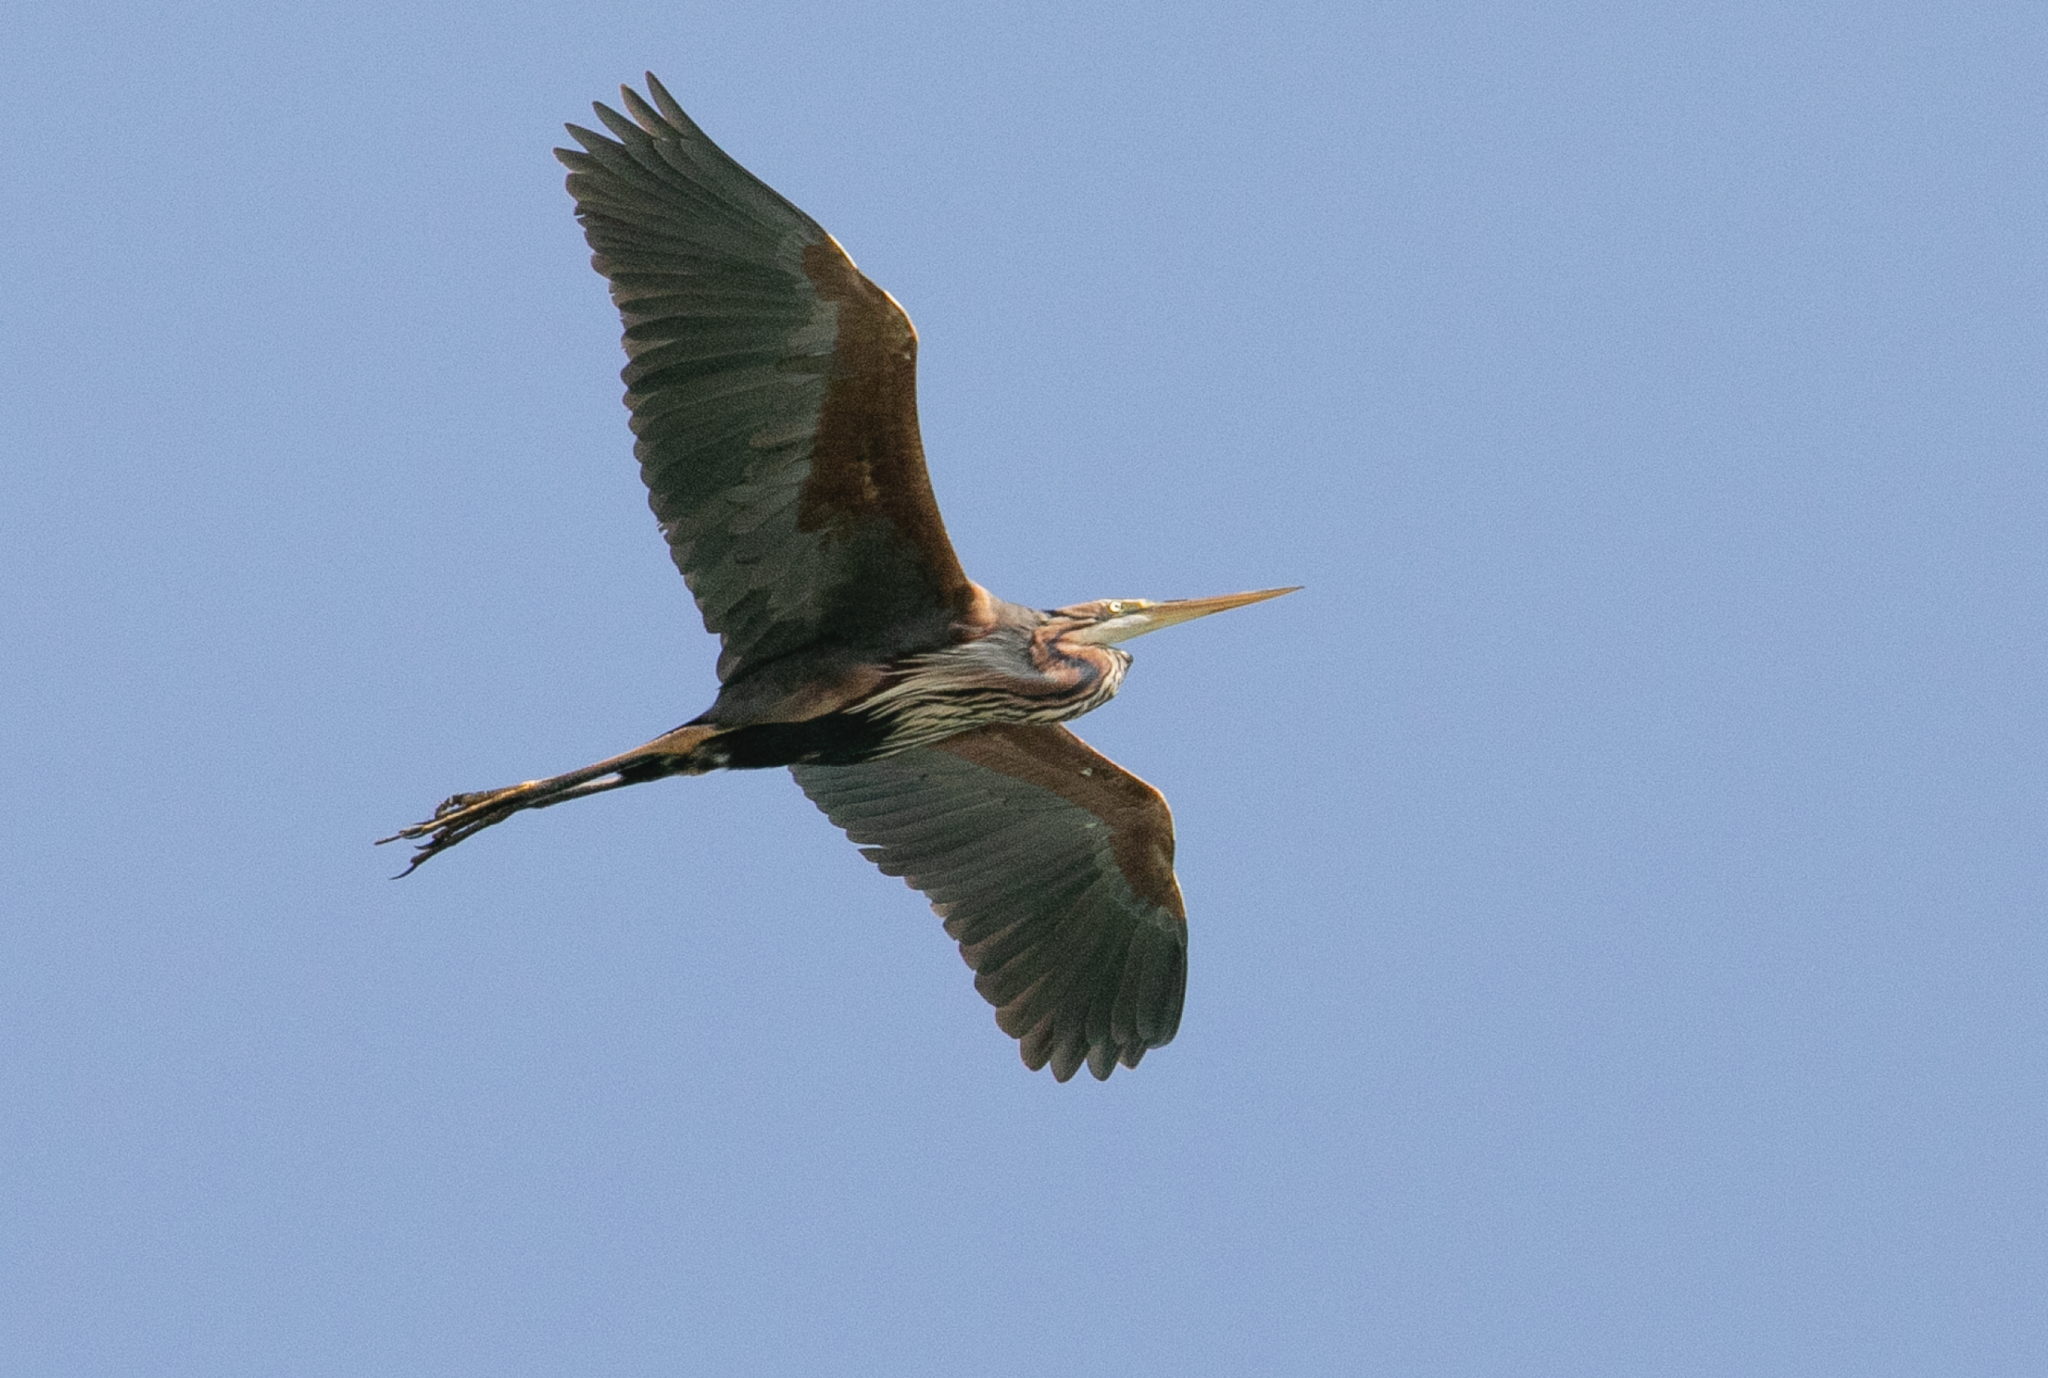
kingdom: Animalia
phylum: Chordata
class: Aves
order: Pelecaniformes
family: Ardeidae
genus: Ardea
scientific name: Ardea purpurea
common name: Purple heron
